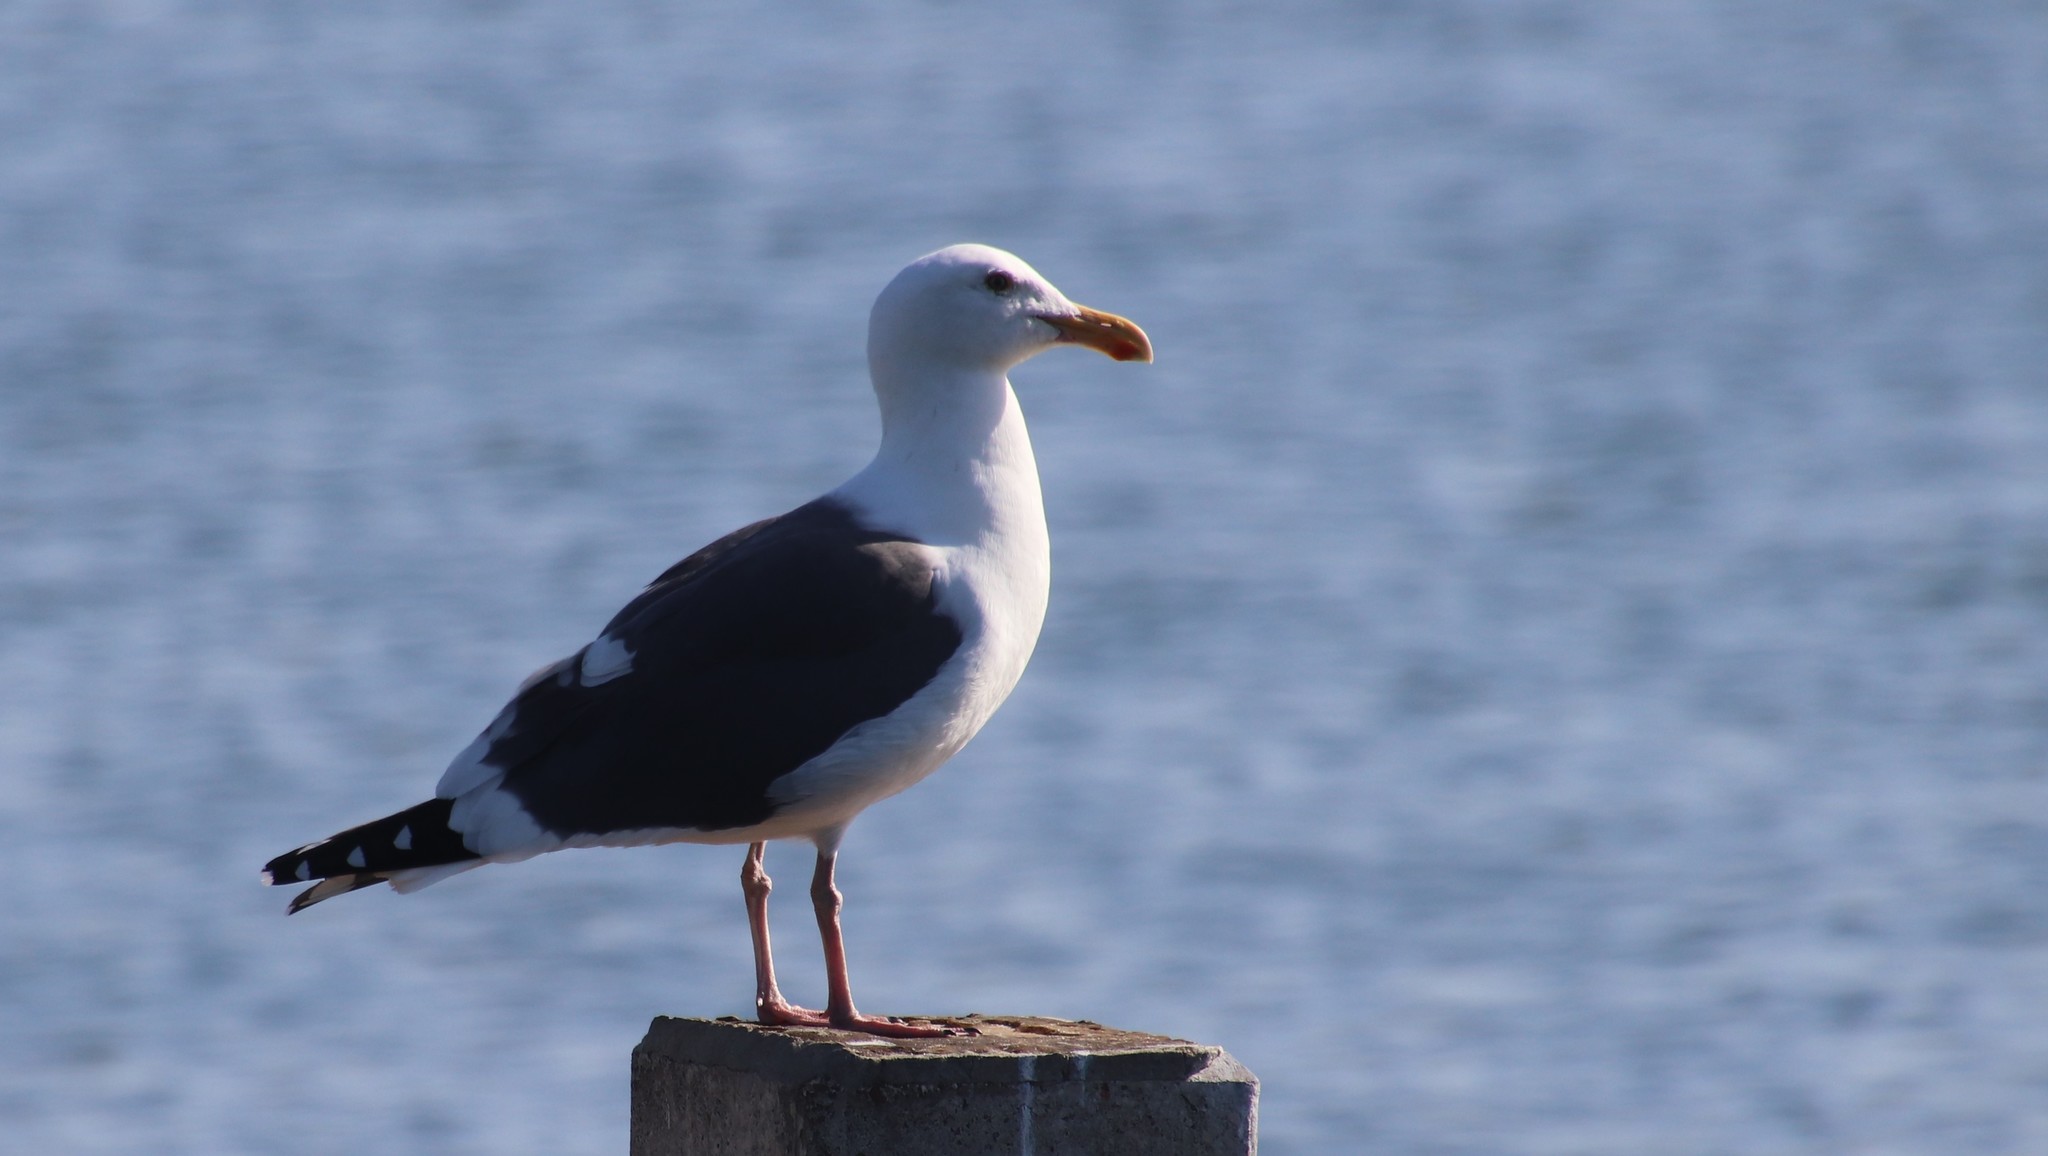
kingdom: Animalia
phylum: Chordata
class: Aves
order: Charadriiformes
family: Laridae
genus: Larus
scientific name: Larus occidentalis
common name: Western gull
